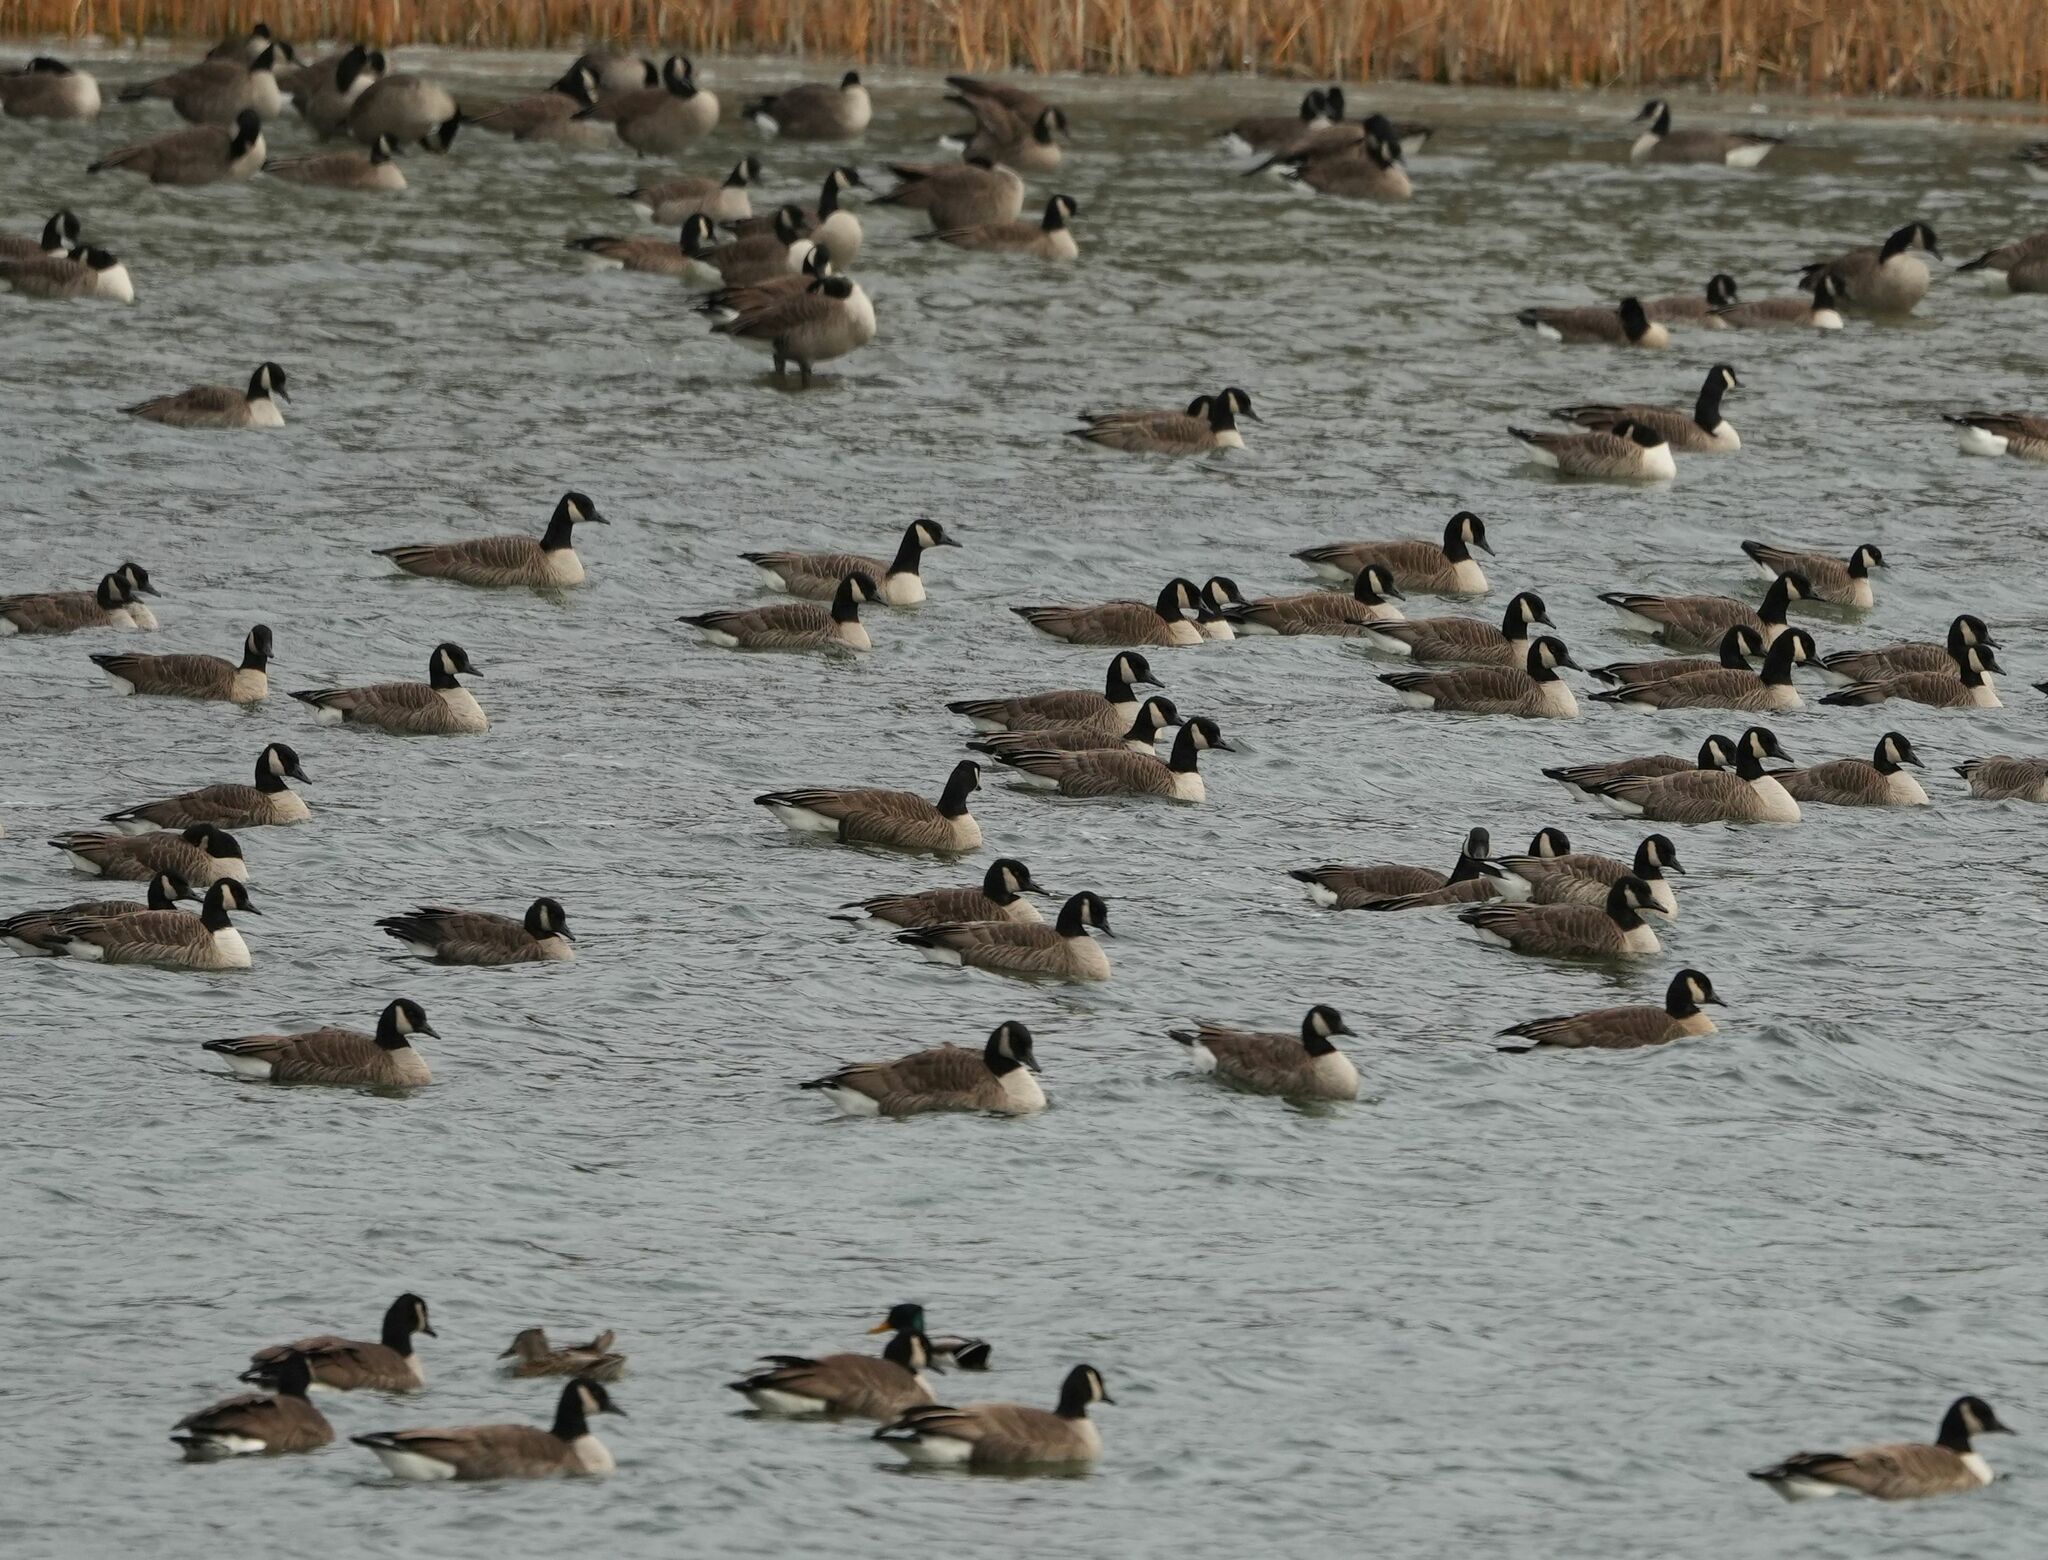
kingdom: Animalia
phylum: Chordata
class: Aves
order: Anseriformes
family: Anatidae
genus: Branta
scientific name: Branta canadensis
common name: Canada goose
